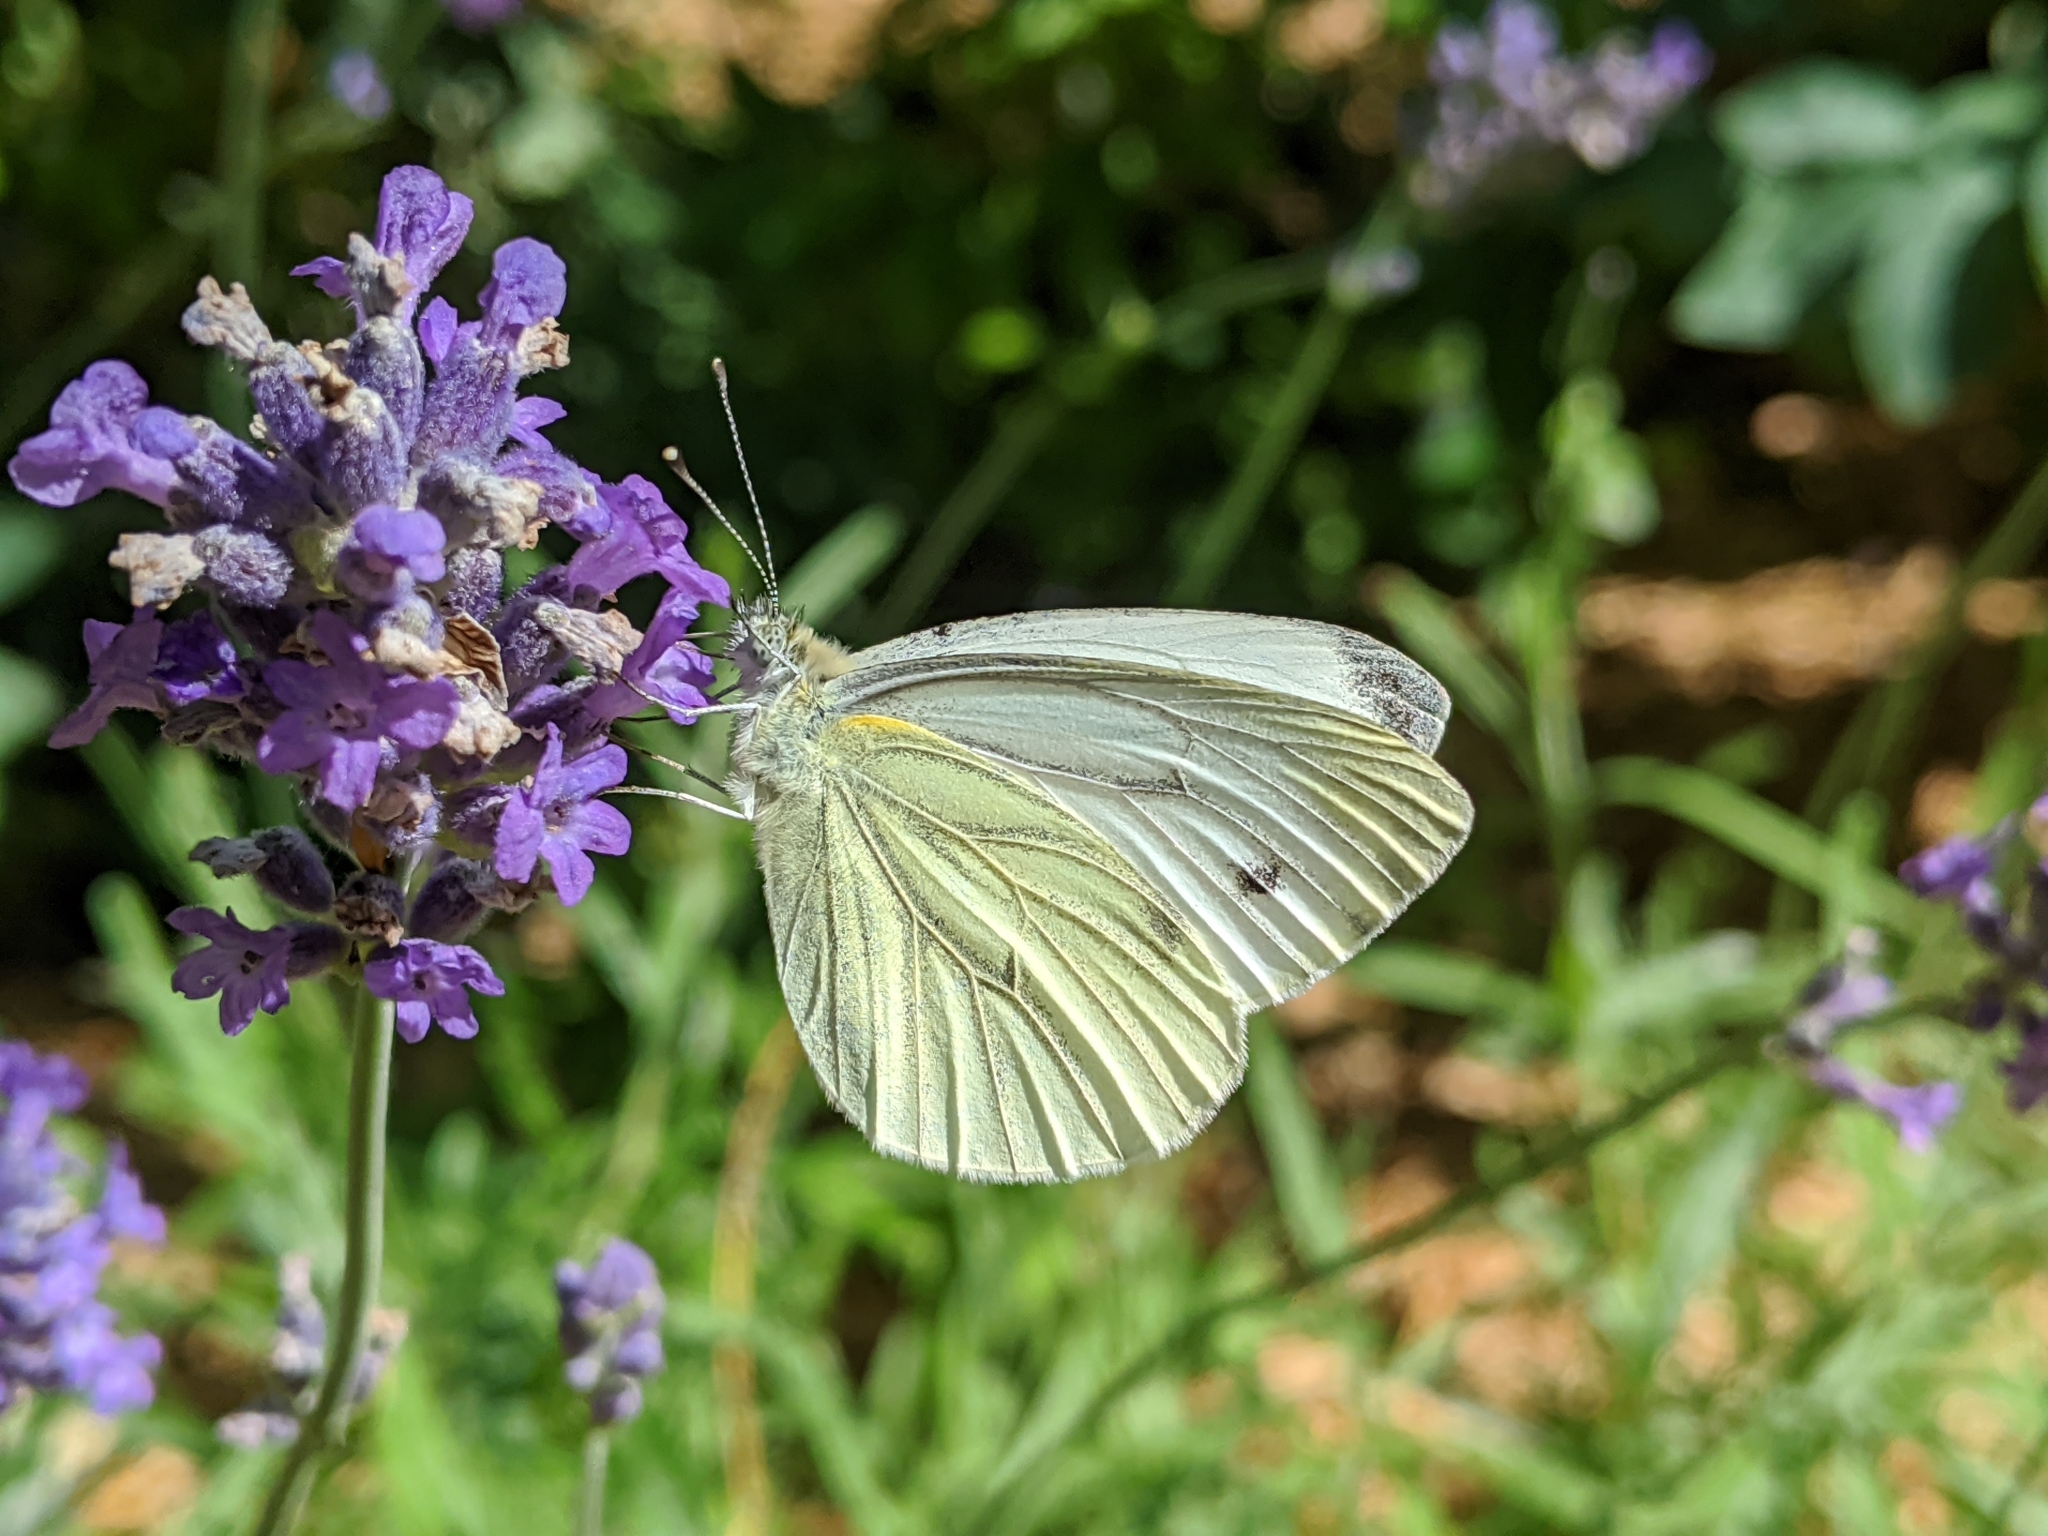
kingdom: Animalia
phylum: Arthropoda
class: Insecta
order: Lepidoptera
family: Pieridae
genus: Pieris
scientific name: Pieris napi
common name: Green-veined white
